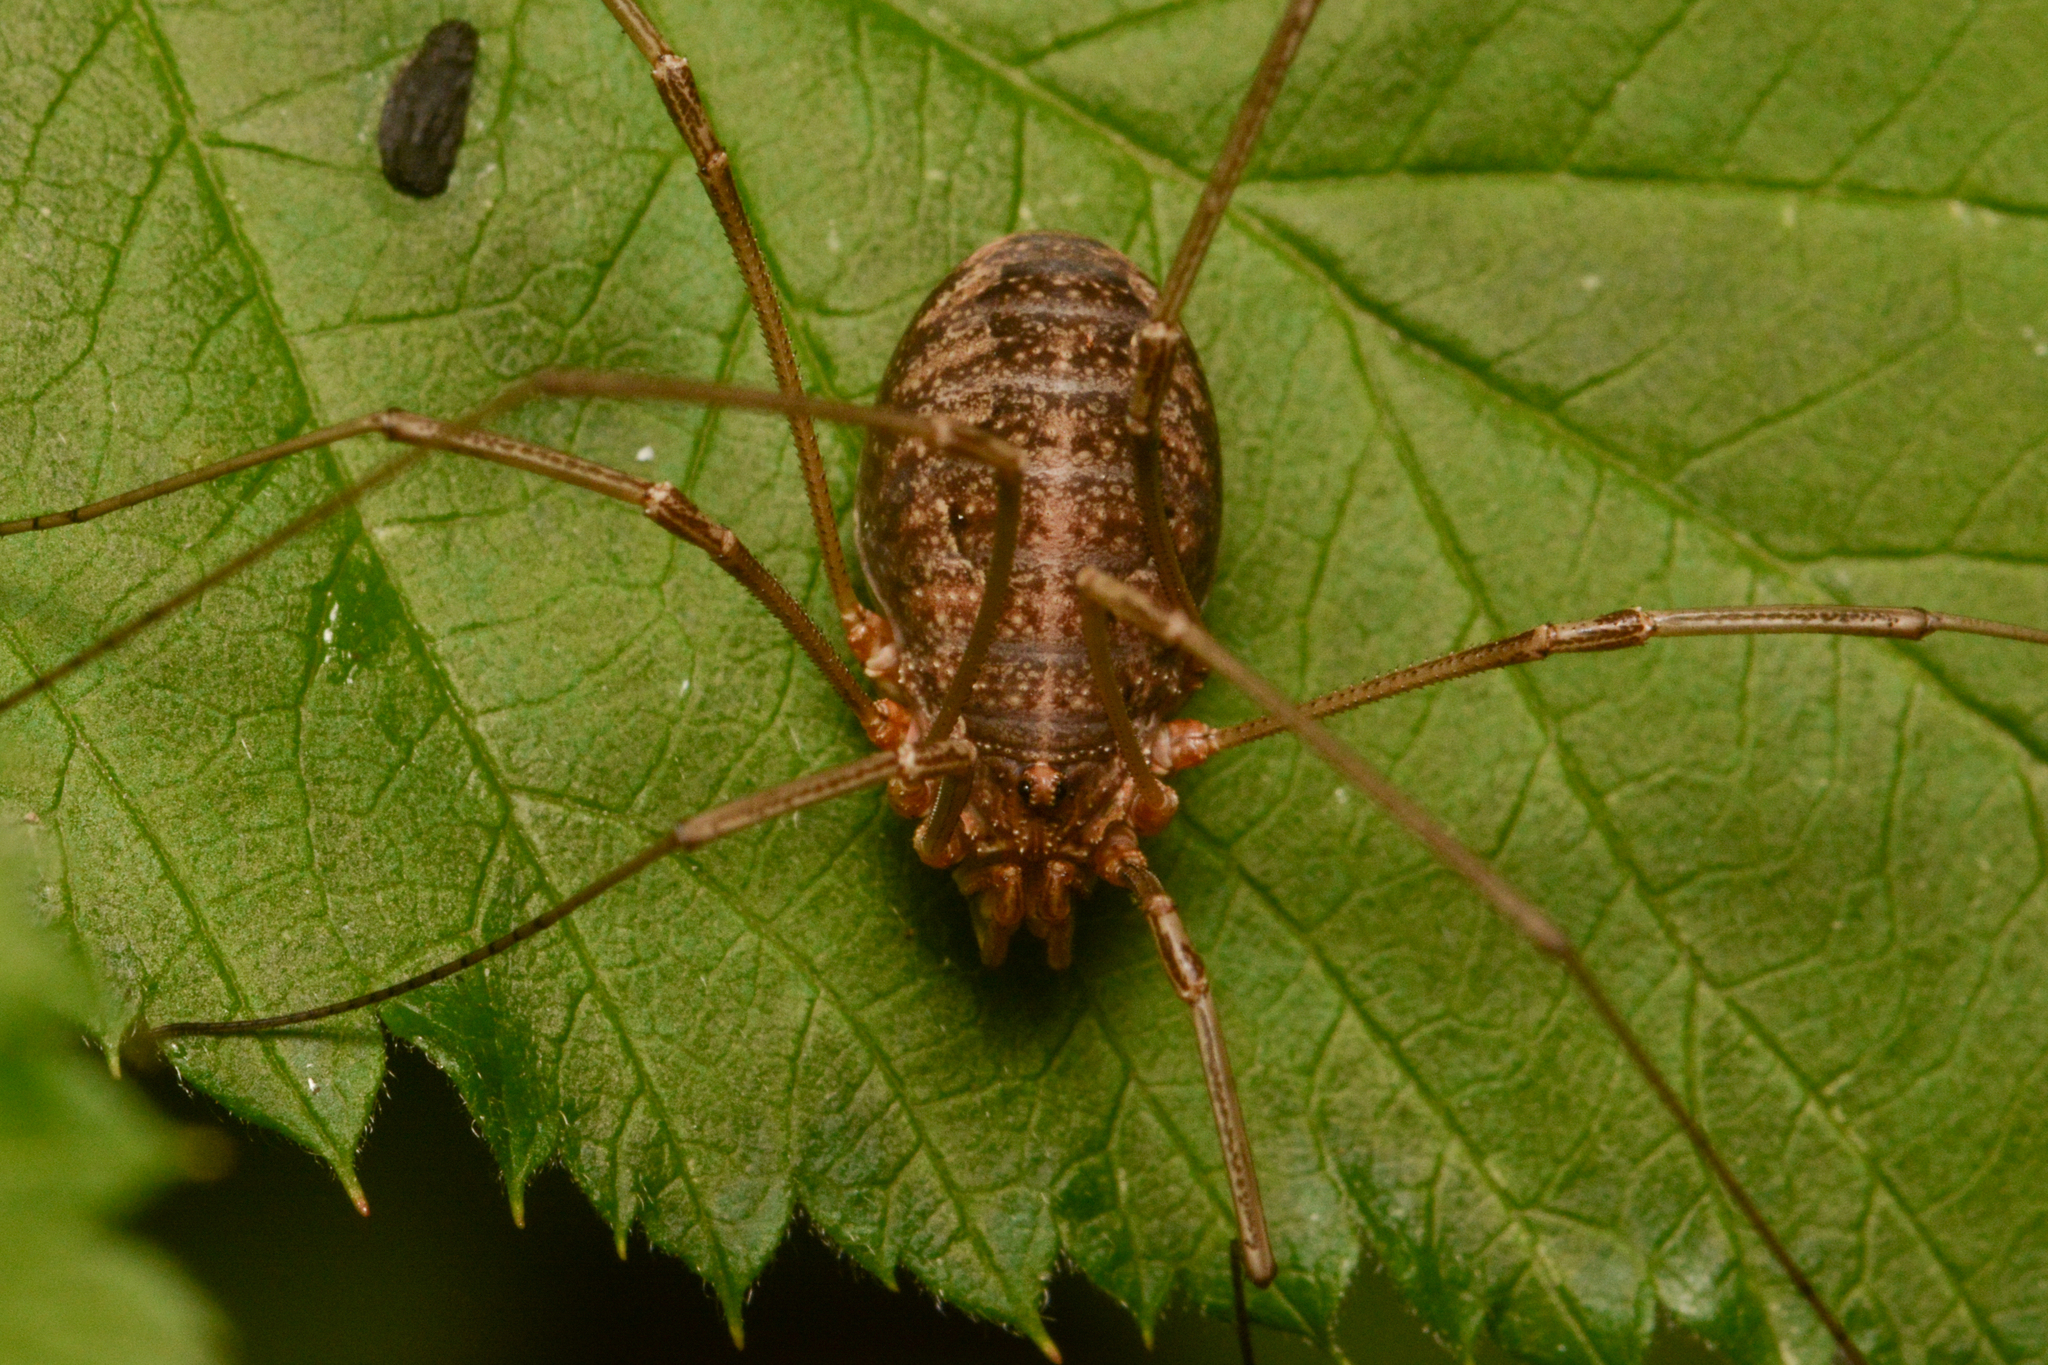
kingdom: Animalia
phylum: Arthropoda
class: Arachnida
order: Opiliones
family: Phalangiidae
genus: Phalangium
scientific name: Phalangium opilio
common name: Daddy longleg
